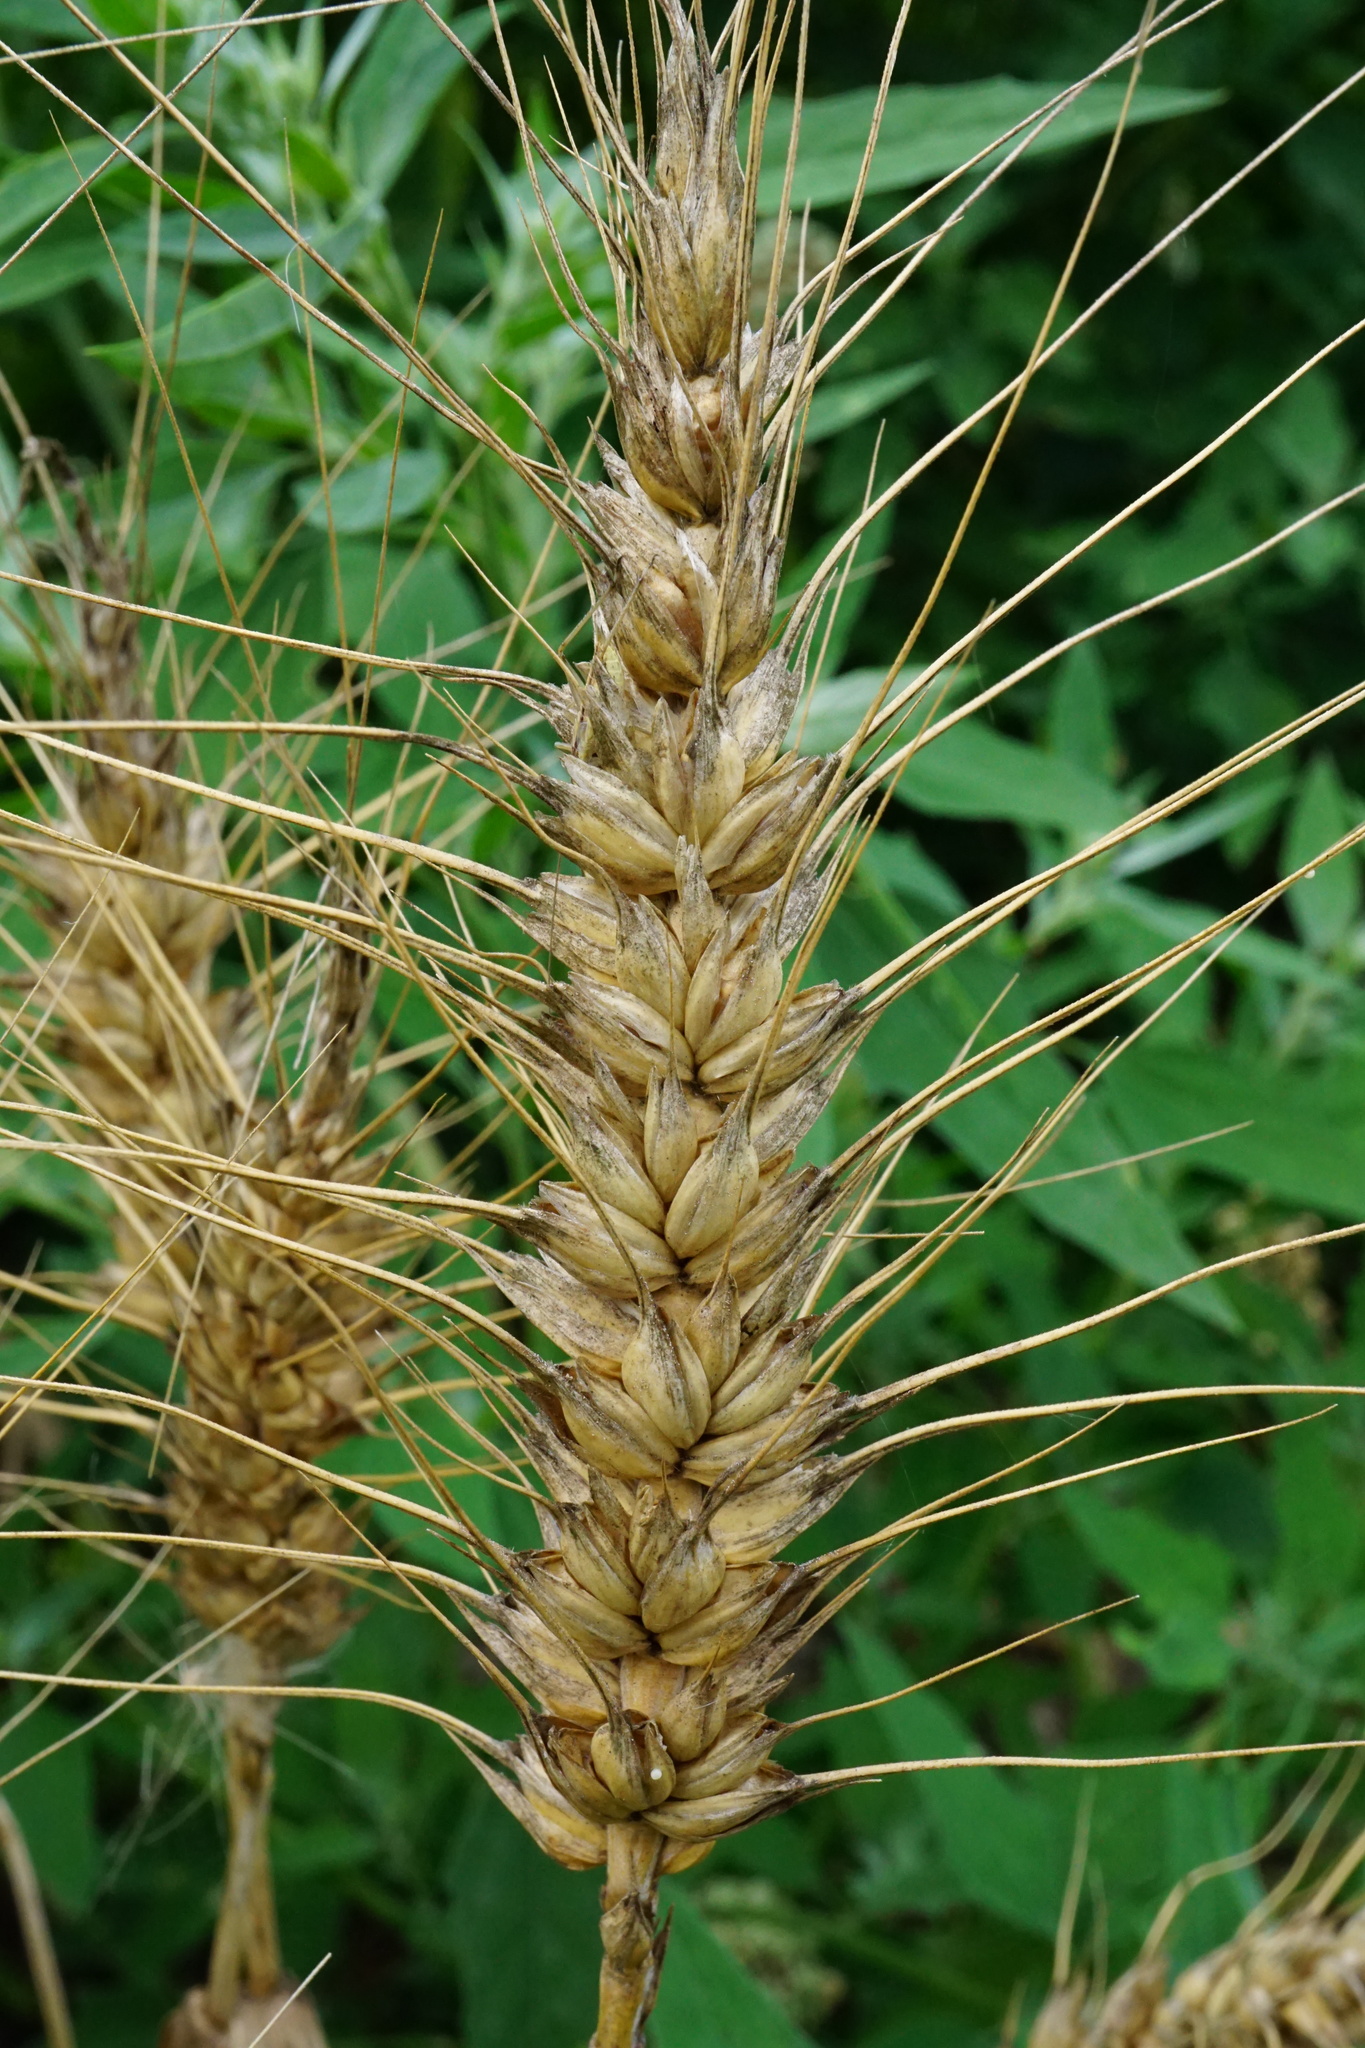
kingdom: Plantae
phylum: Tracheophyta
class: Liliopsida
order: Poales
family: Poaceae
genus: Triticum
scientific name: Triticum aestivum
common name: Common wheat
